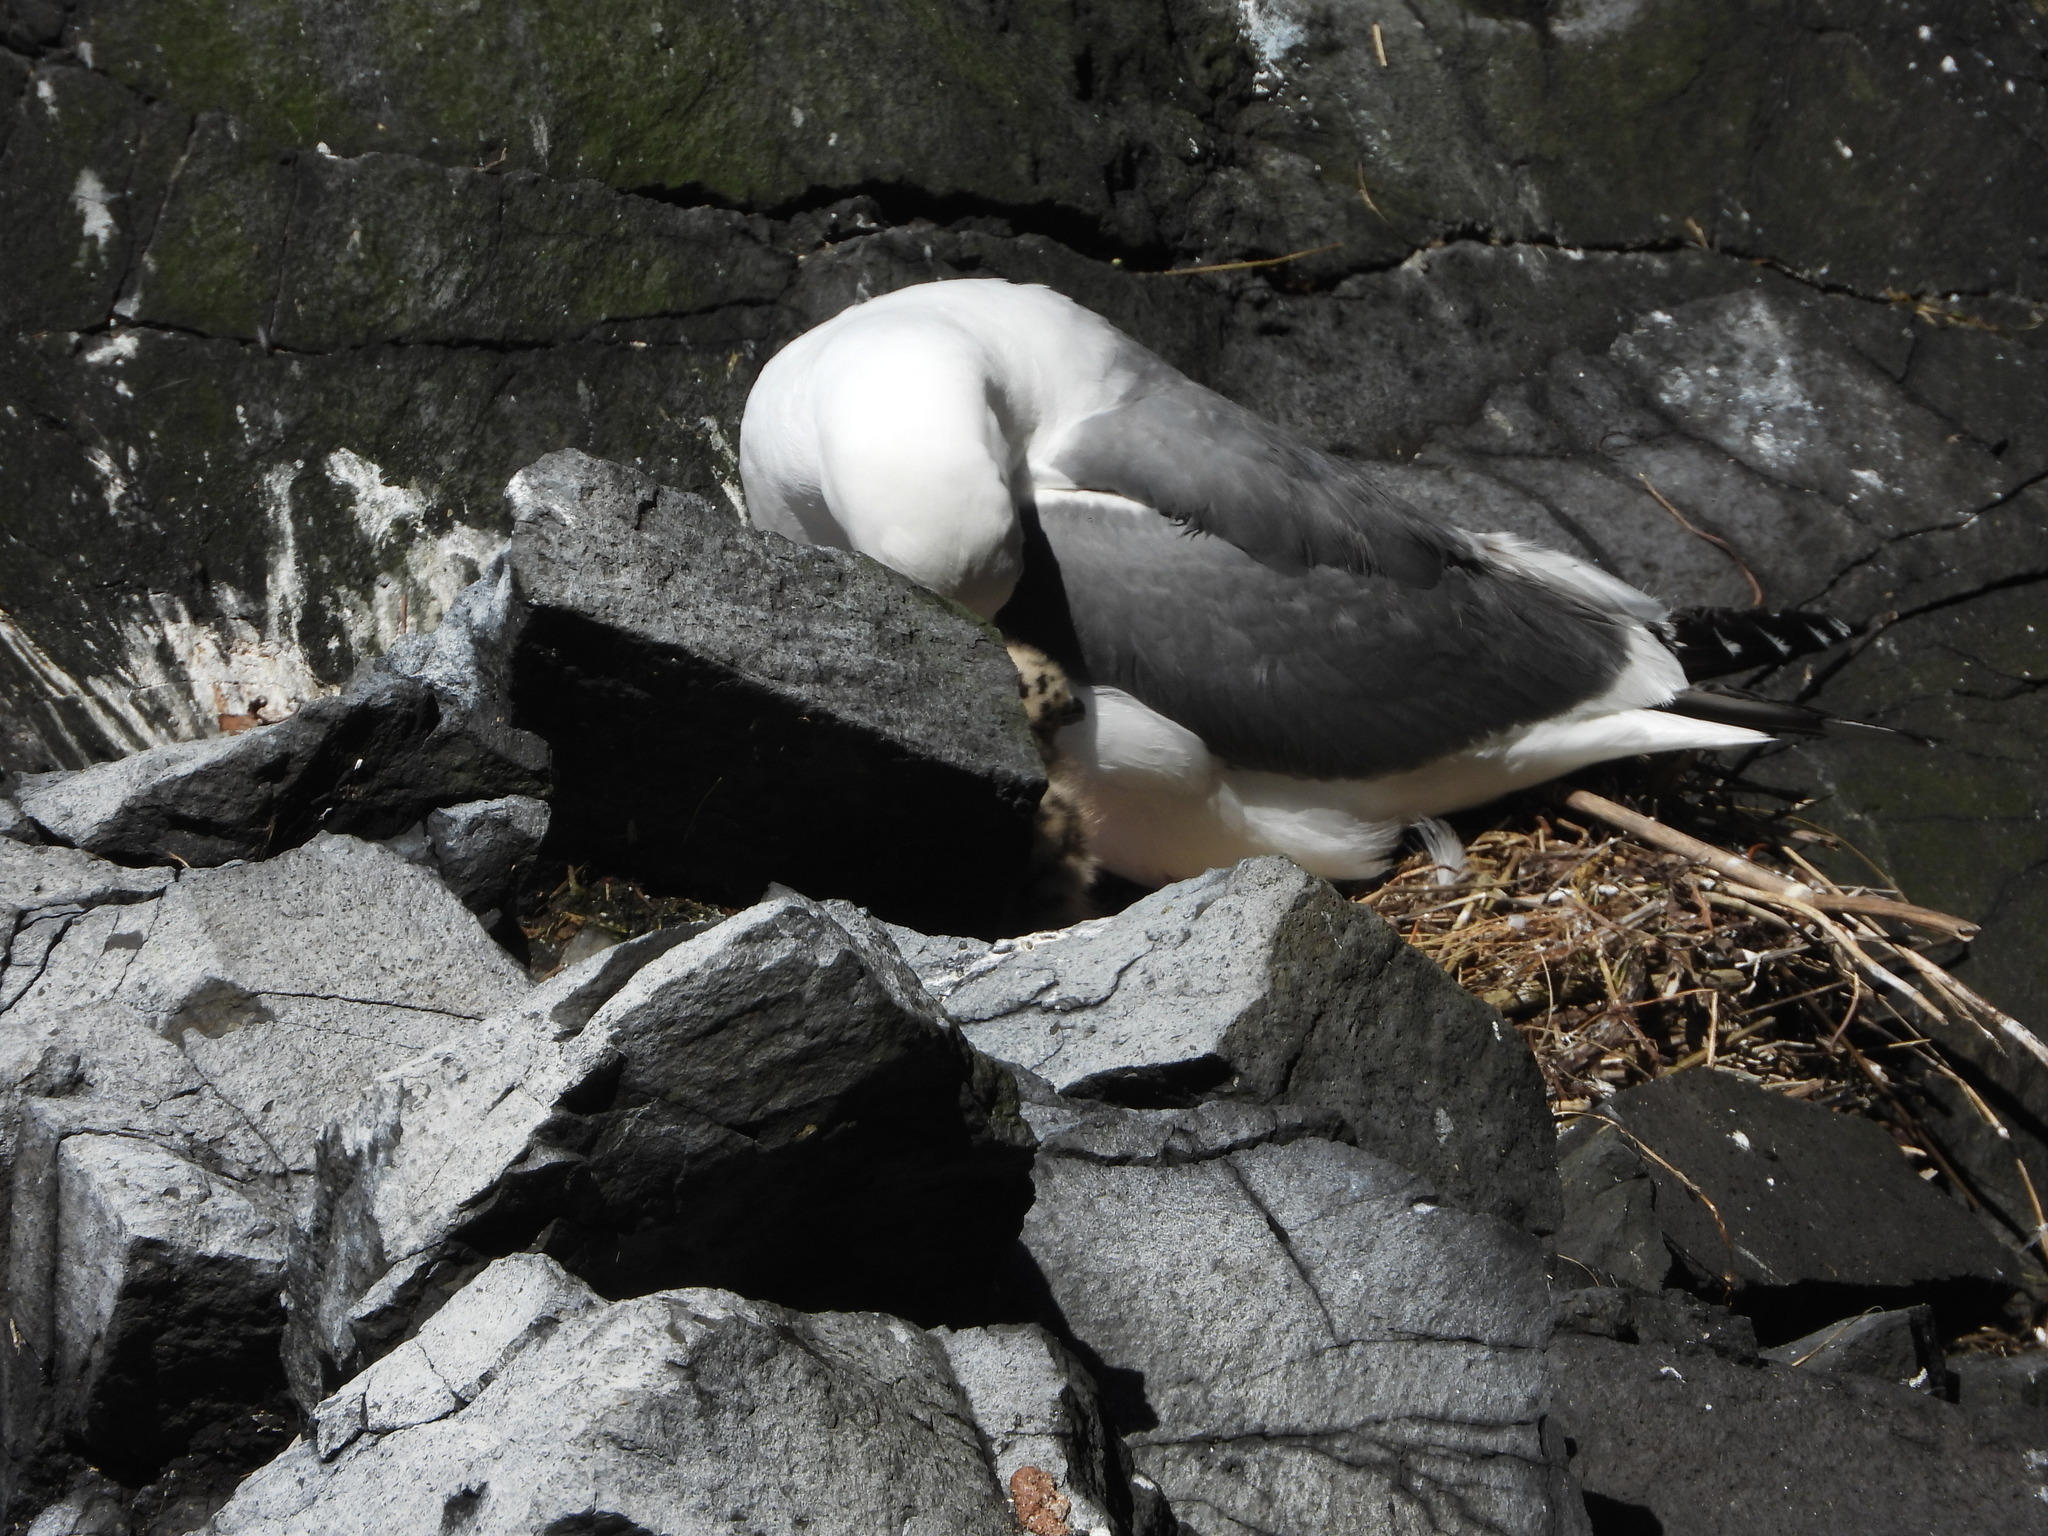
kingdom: Animalia
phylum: Chordata
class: Aves
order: Charadriiformes
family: Laridae
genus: Larus
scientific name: Larus occidentalis
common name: Western gull
